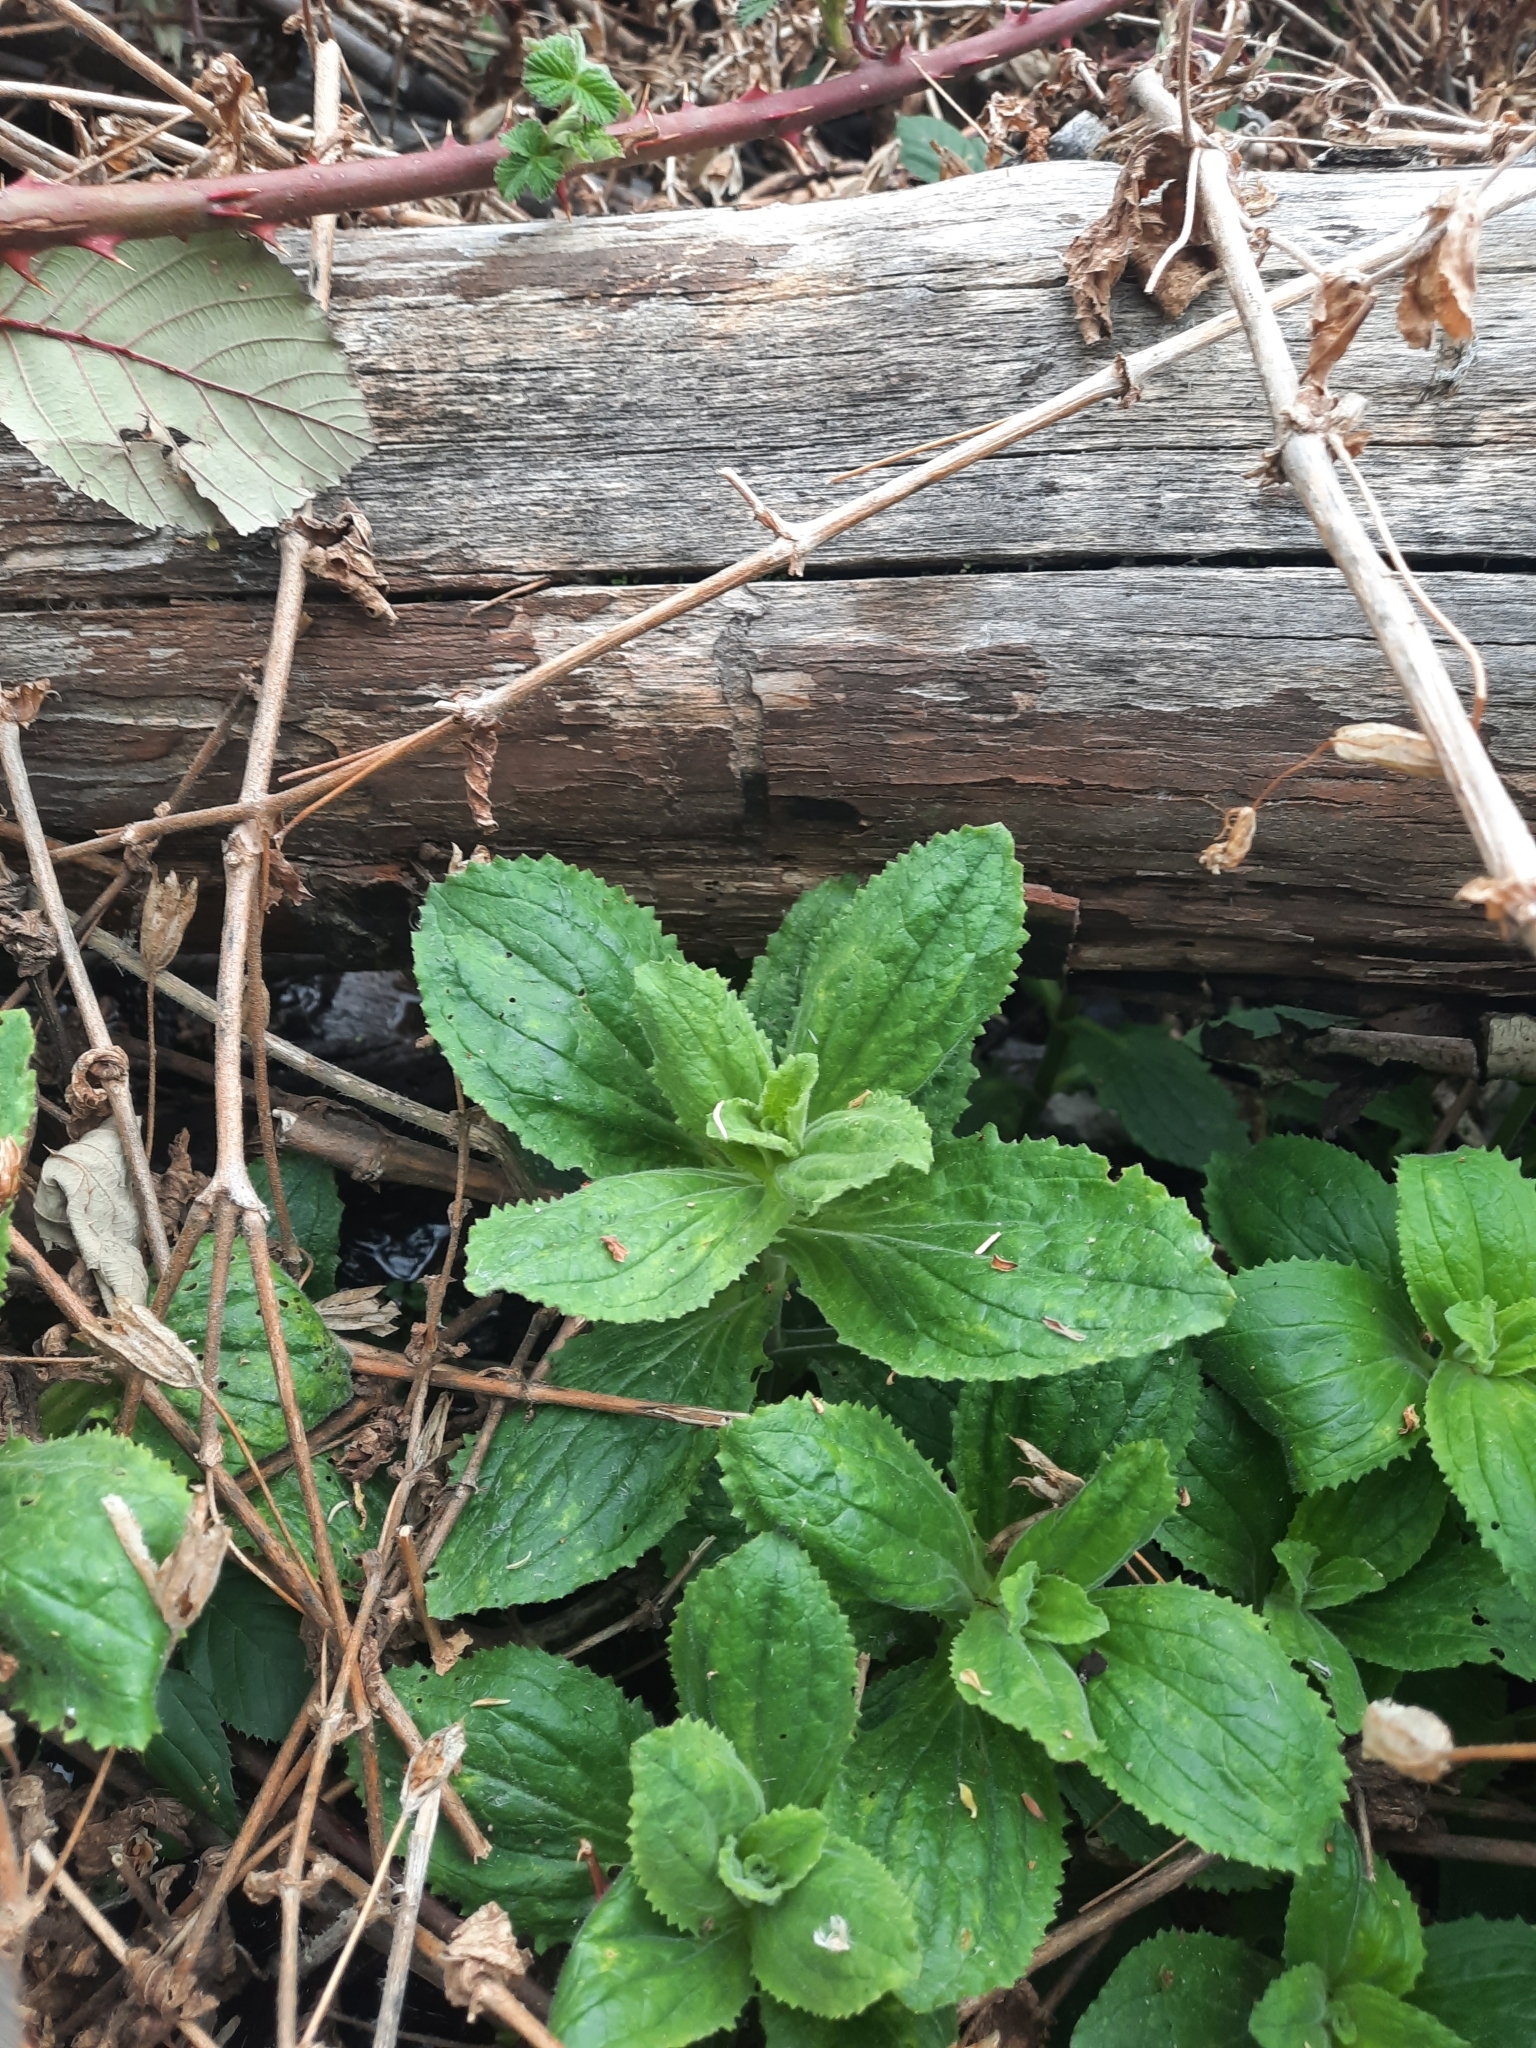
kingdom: Plantae
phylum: Tracheophyta
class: Magnoliopsida
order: Lamiales
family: Phrymaceae
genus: Erythranthe
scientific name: Erythranthe cardinalis
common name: Scarlet monkey-flower
